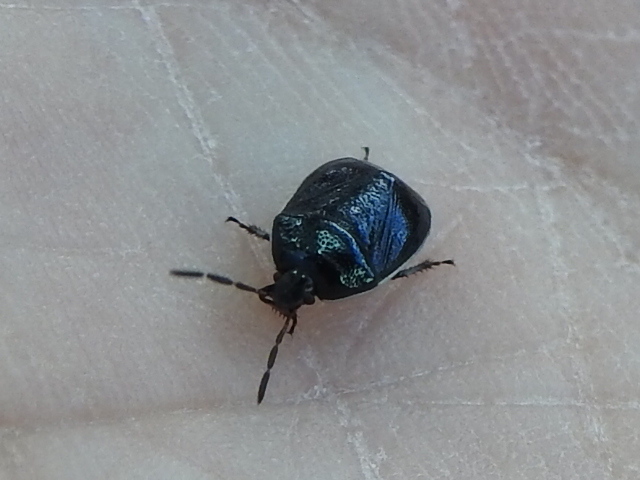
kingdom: Animalia
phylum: Arthropoda
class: Insecta
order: Hemiptera
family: Cydnidae
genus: Sehirus
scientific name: Sehirus cinctus
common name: White-margined burrower bug
